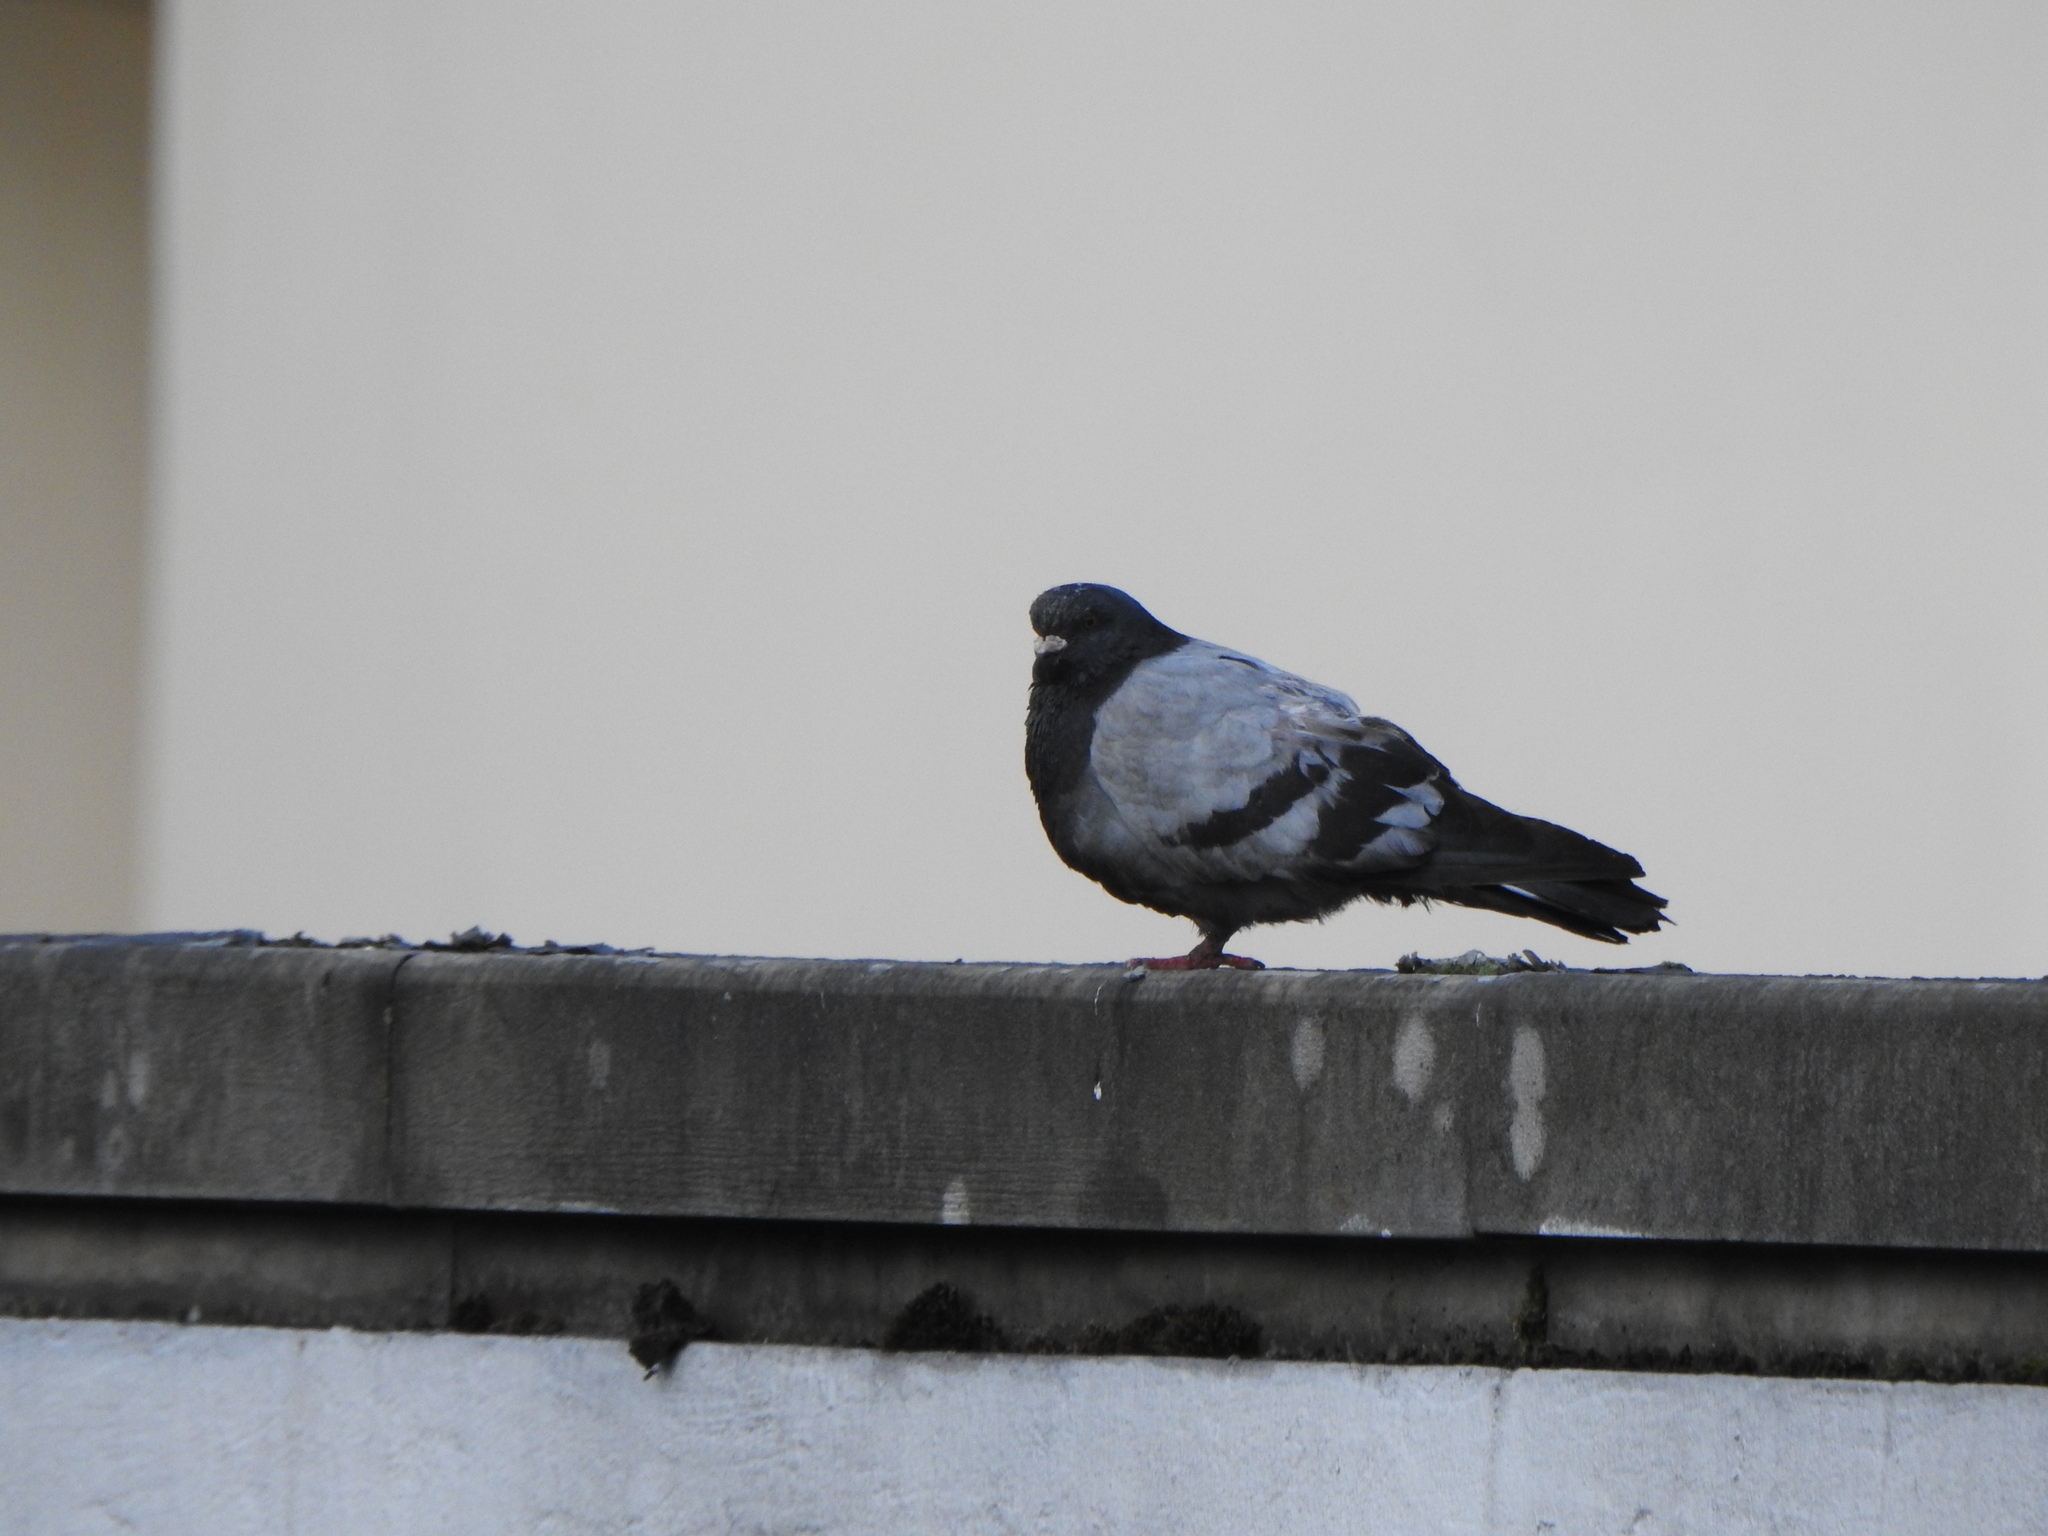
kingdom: Animalia
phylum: Chordata
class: Aves
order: Columbiformes
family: Columbidae
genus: Columba
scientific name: Columba livia
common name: Rock pigeon
